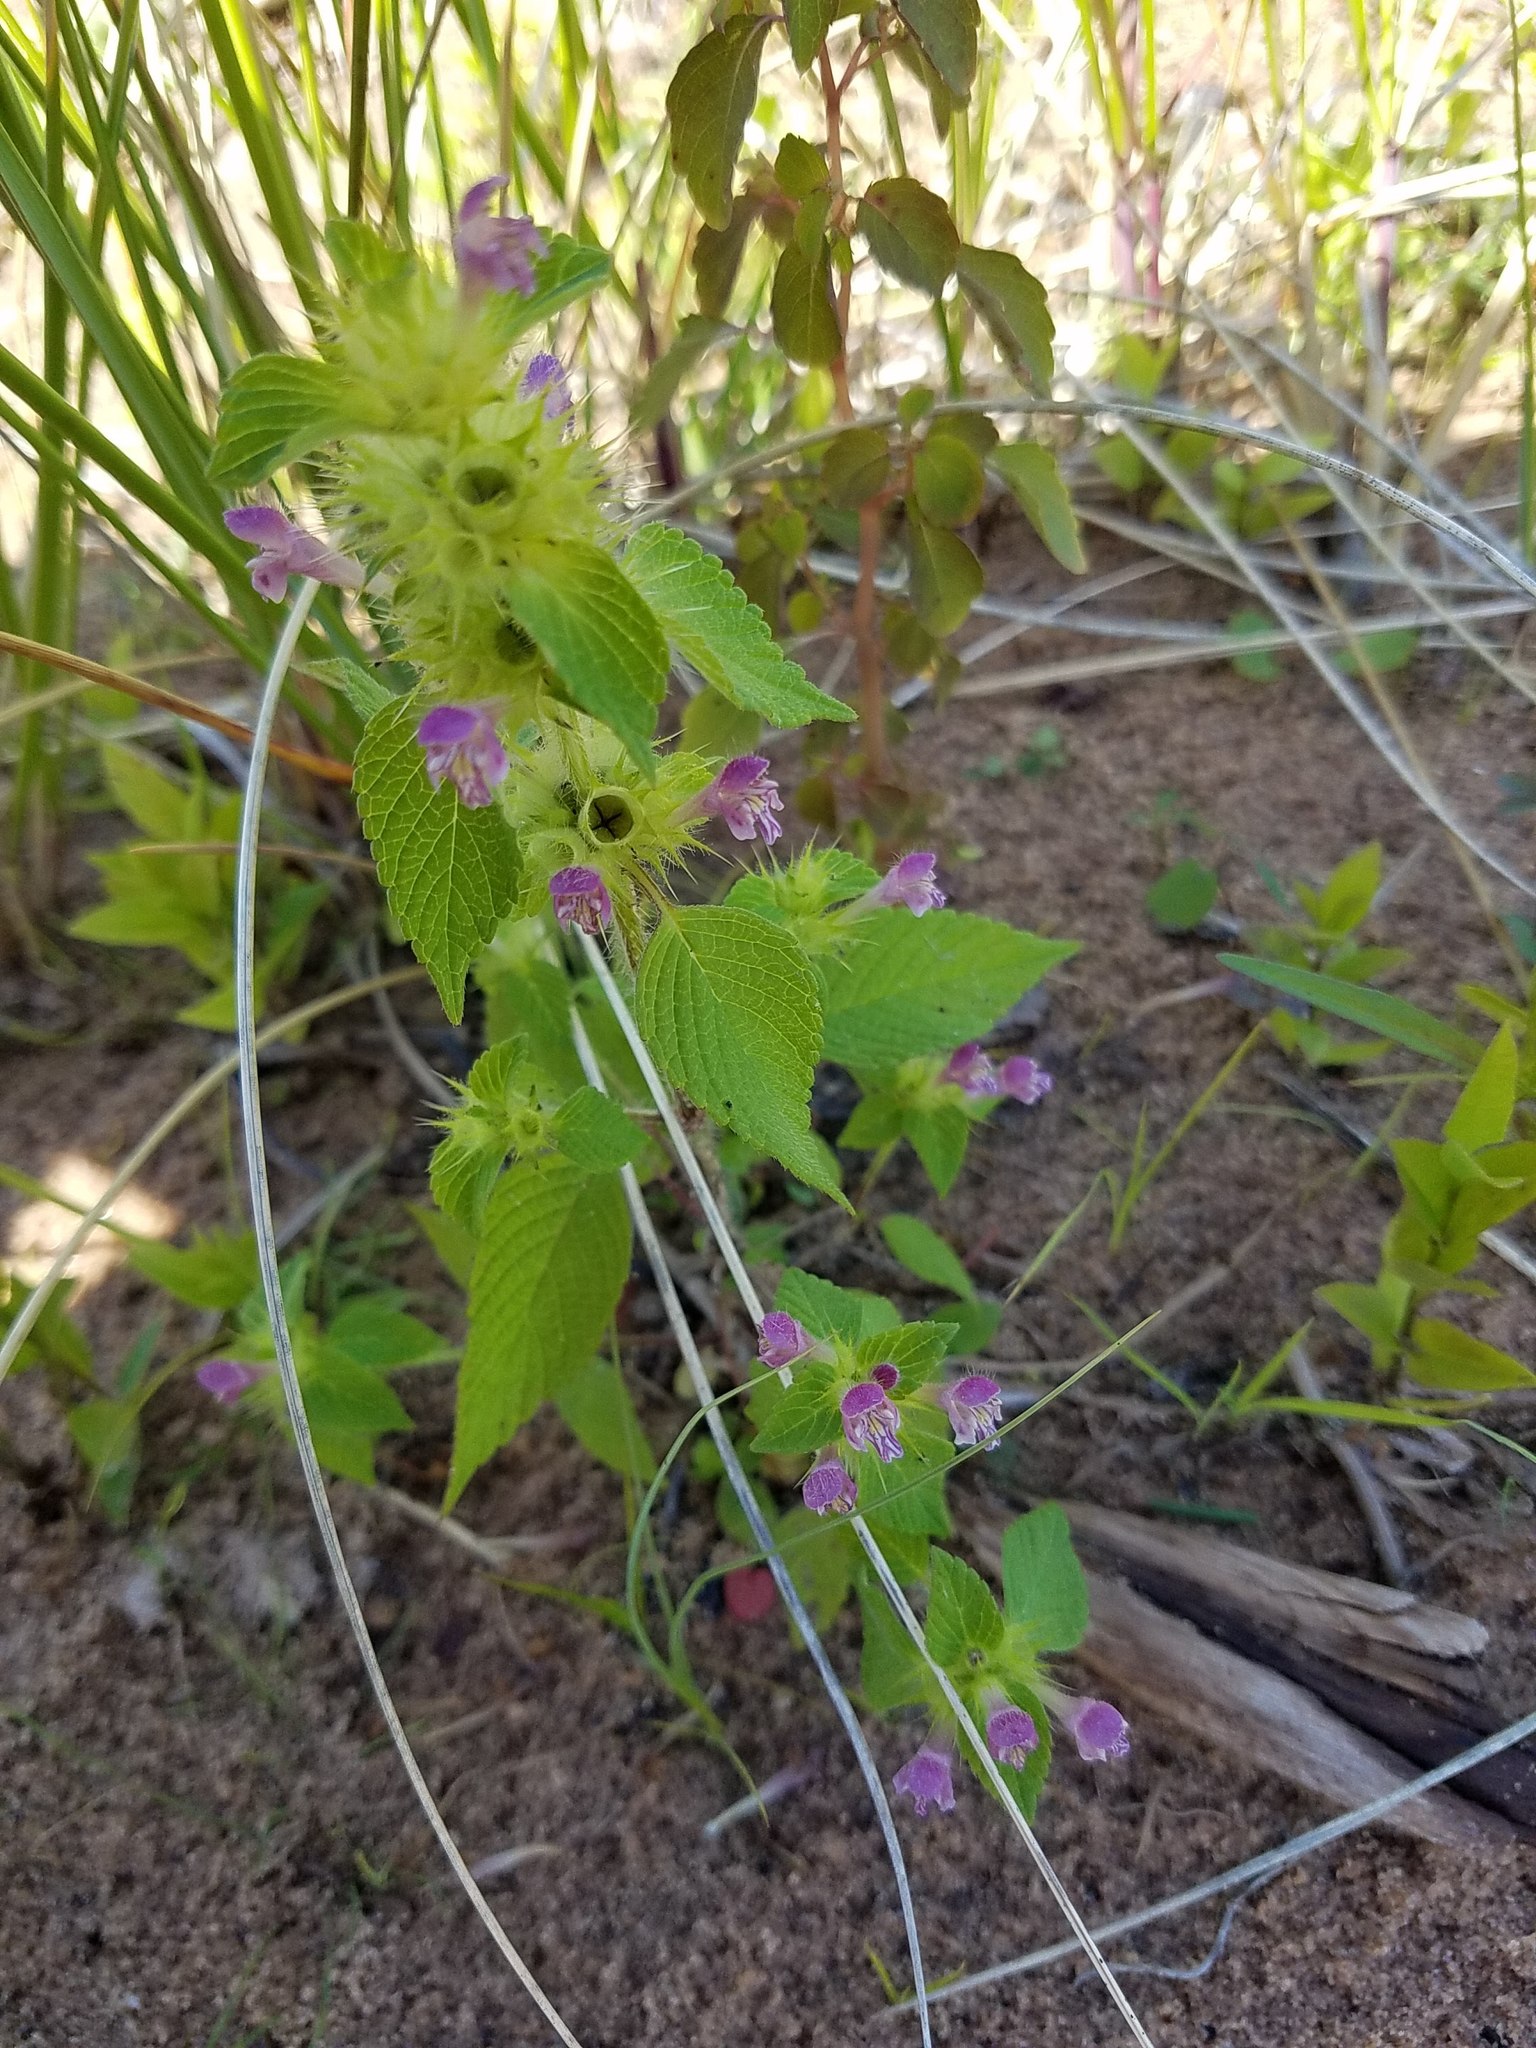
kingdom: Plantae
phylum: Tracheophyta
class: Magnoliopsida
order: Lamiales
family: Lamiaceae
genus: Galeopsis
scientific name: Galeopsis tetrahit
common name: Common hemp-nettle
